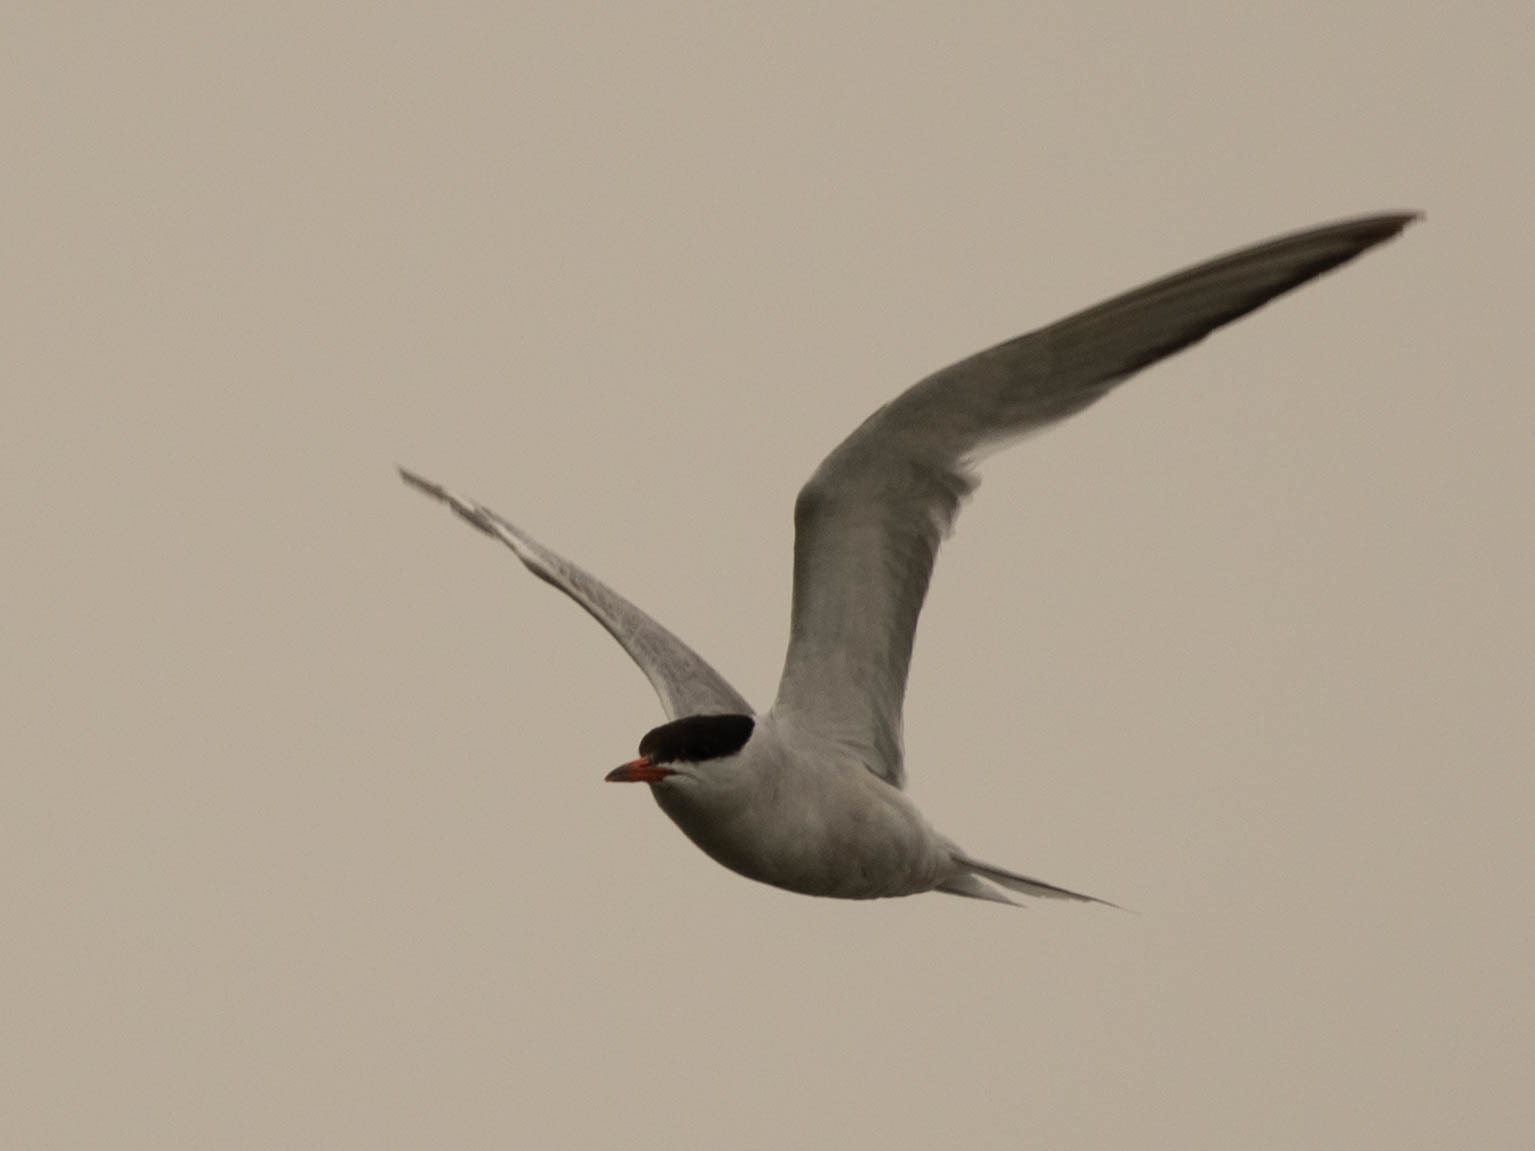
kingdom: Animalia
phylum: Chordata
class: Aves
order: Charadriiformes
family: Laridae
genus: Sterna
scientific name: Sterna hirundo
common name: Common tern
